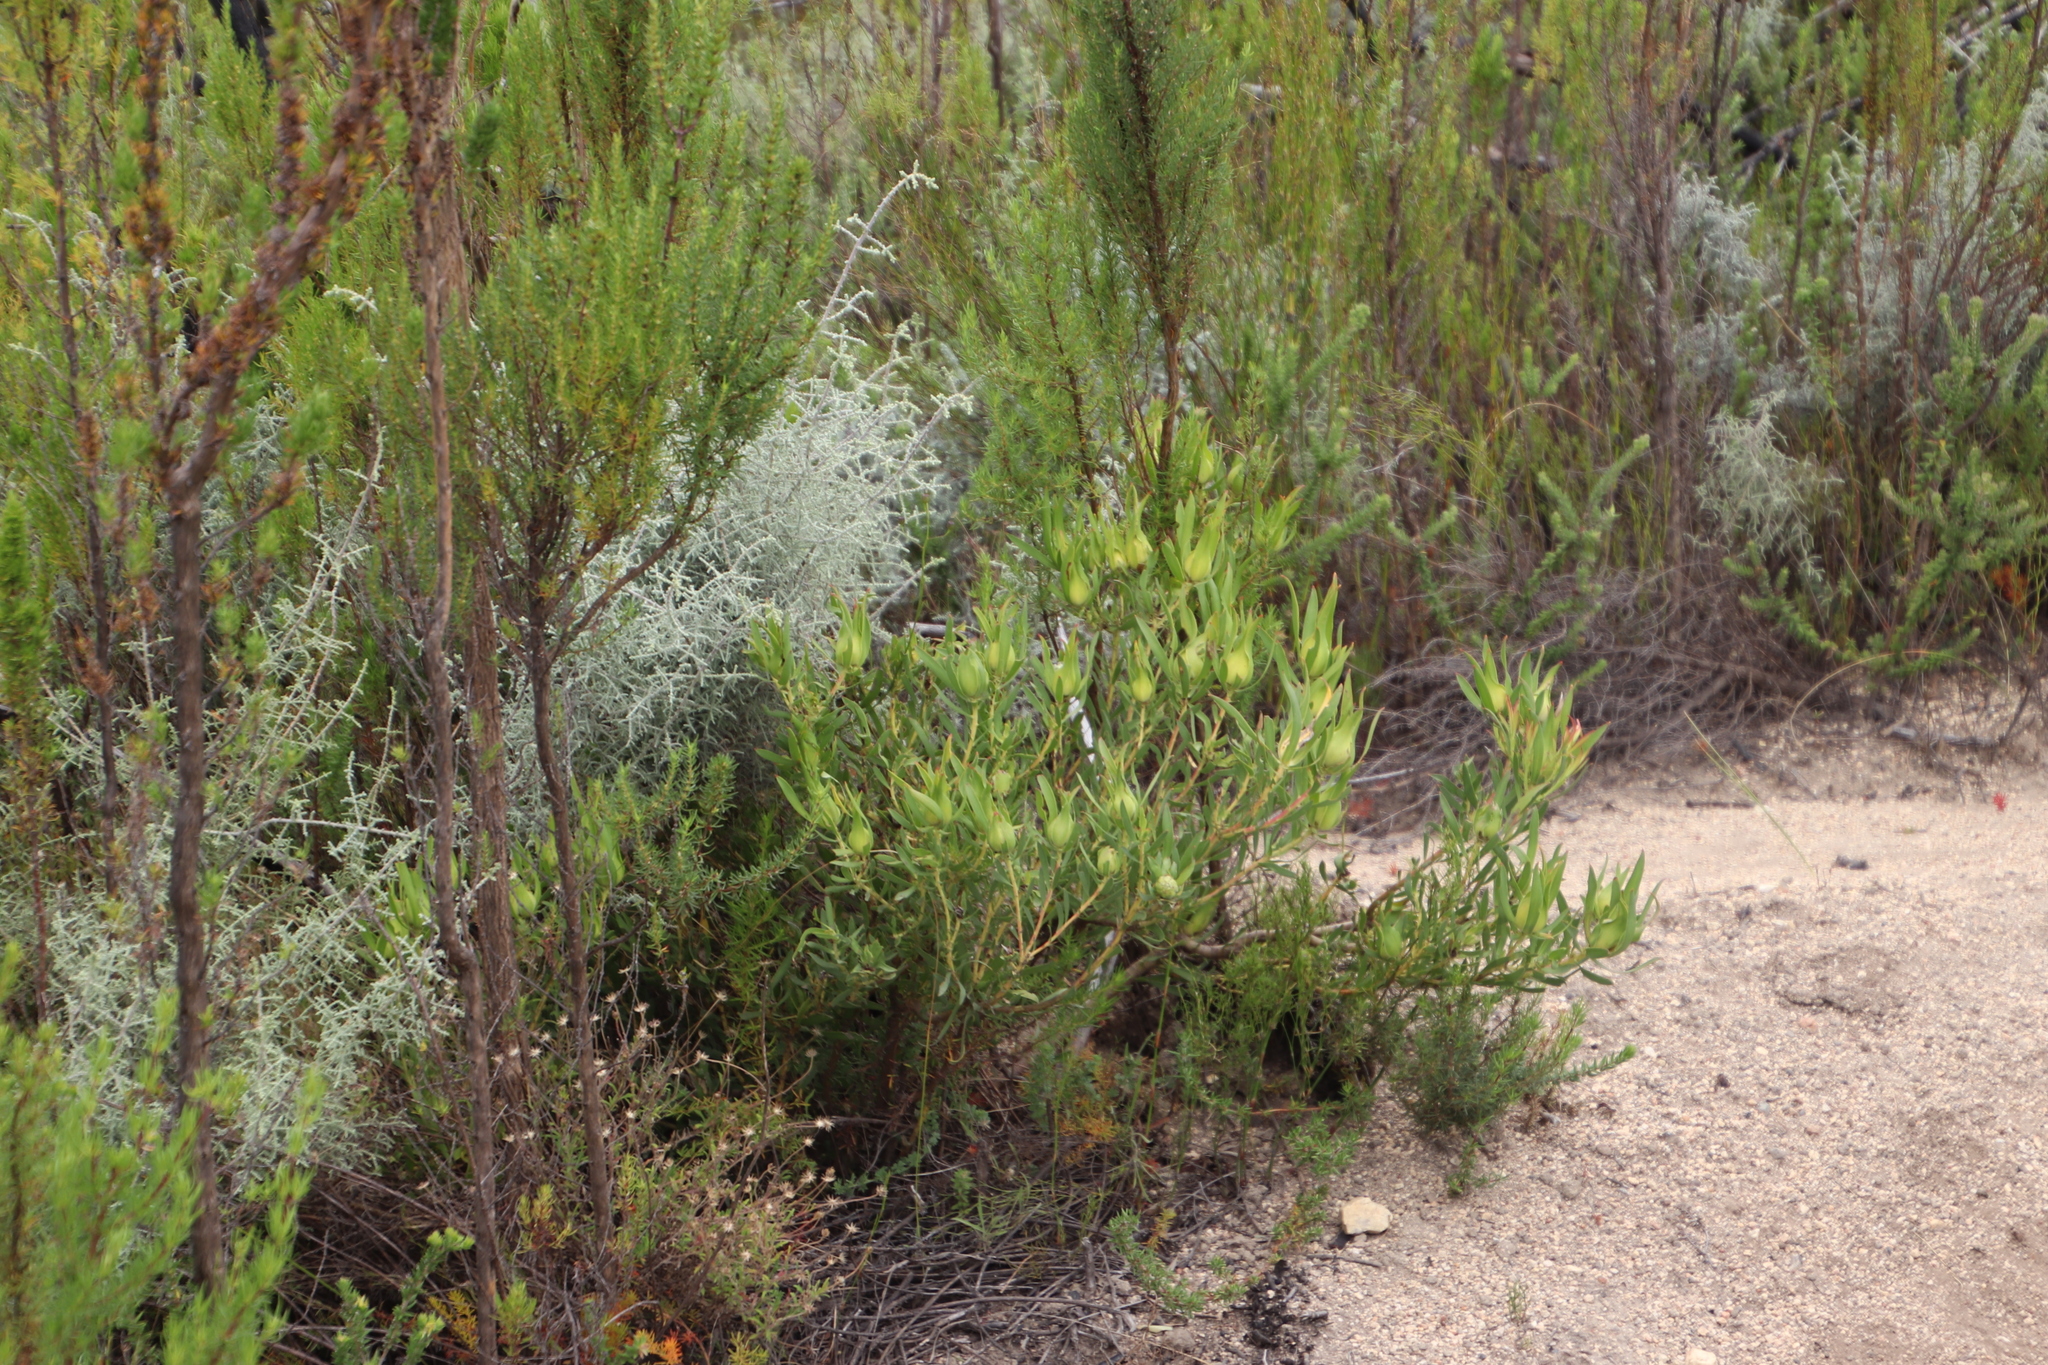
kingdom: Plantae
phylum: Tracheophyta
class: Magnoliopsida
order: Proteales
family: Proteaceae
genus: Leucadendron
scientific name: Leucadendron salignum
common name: Common sunshine conebush
